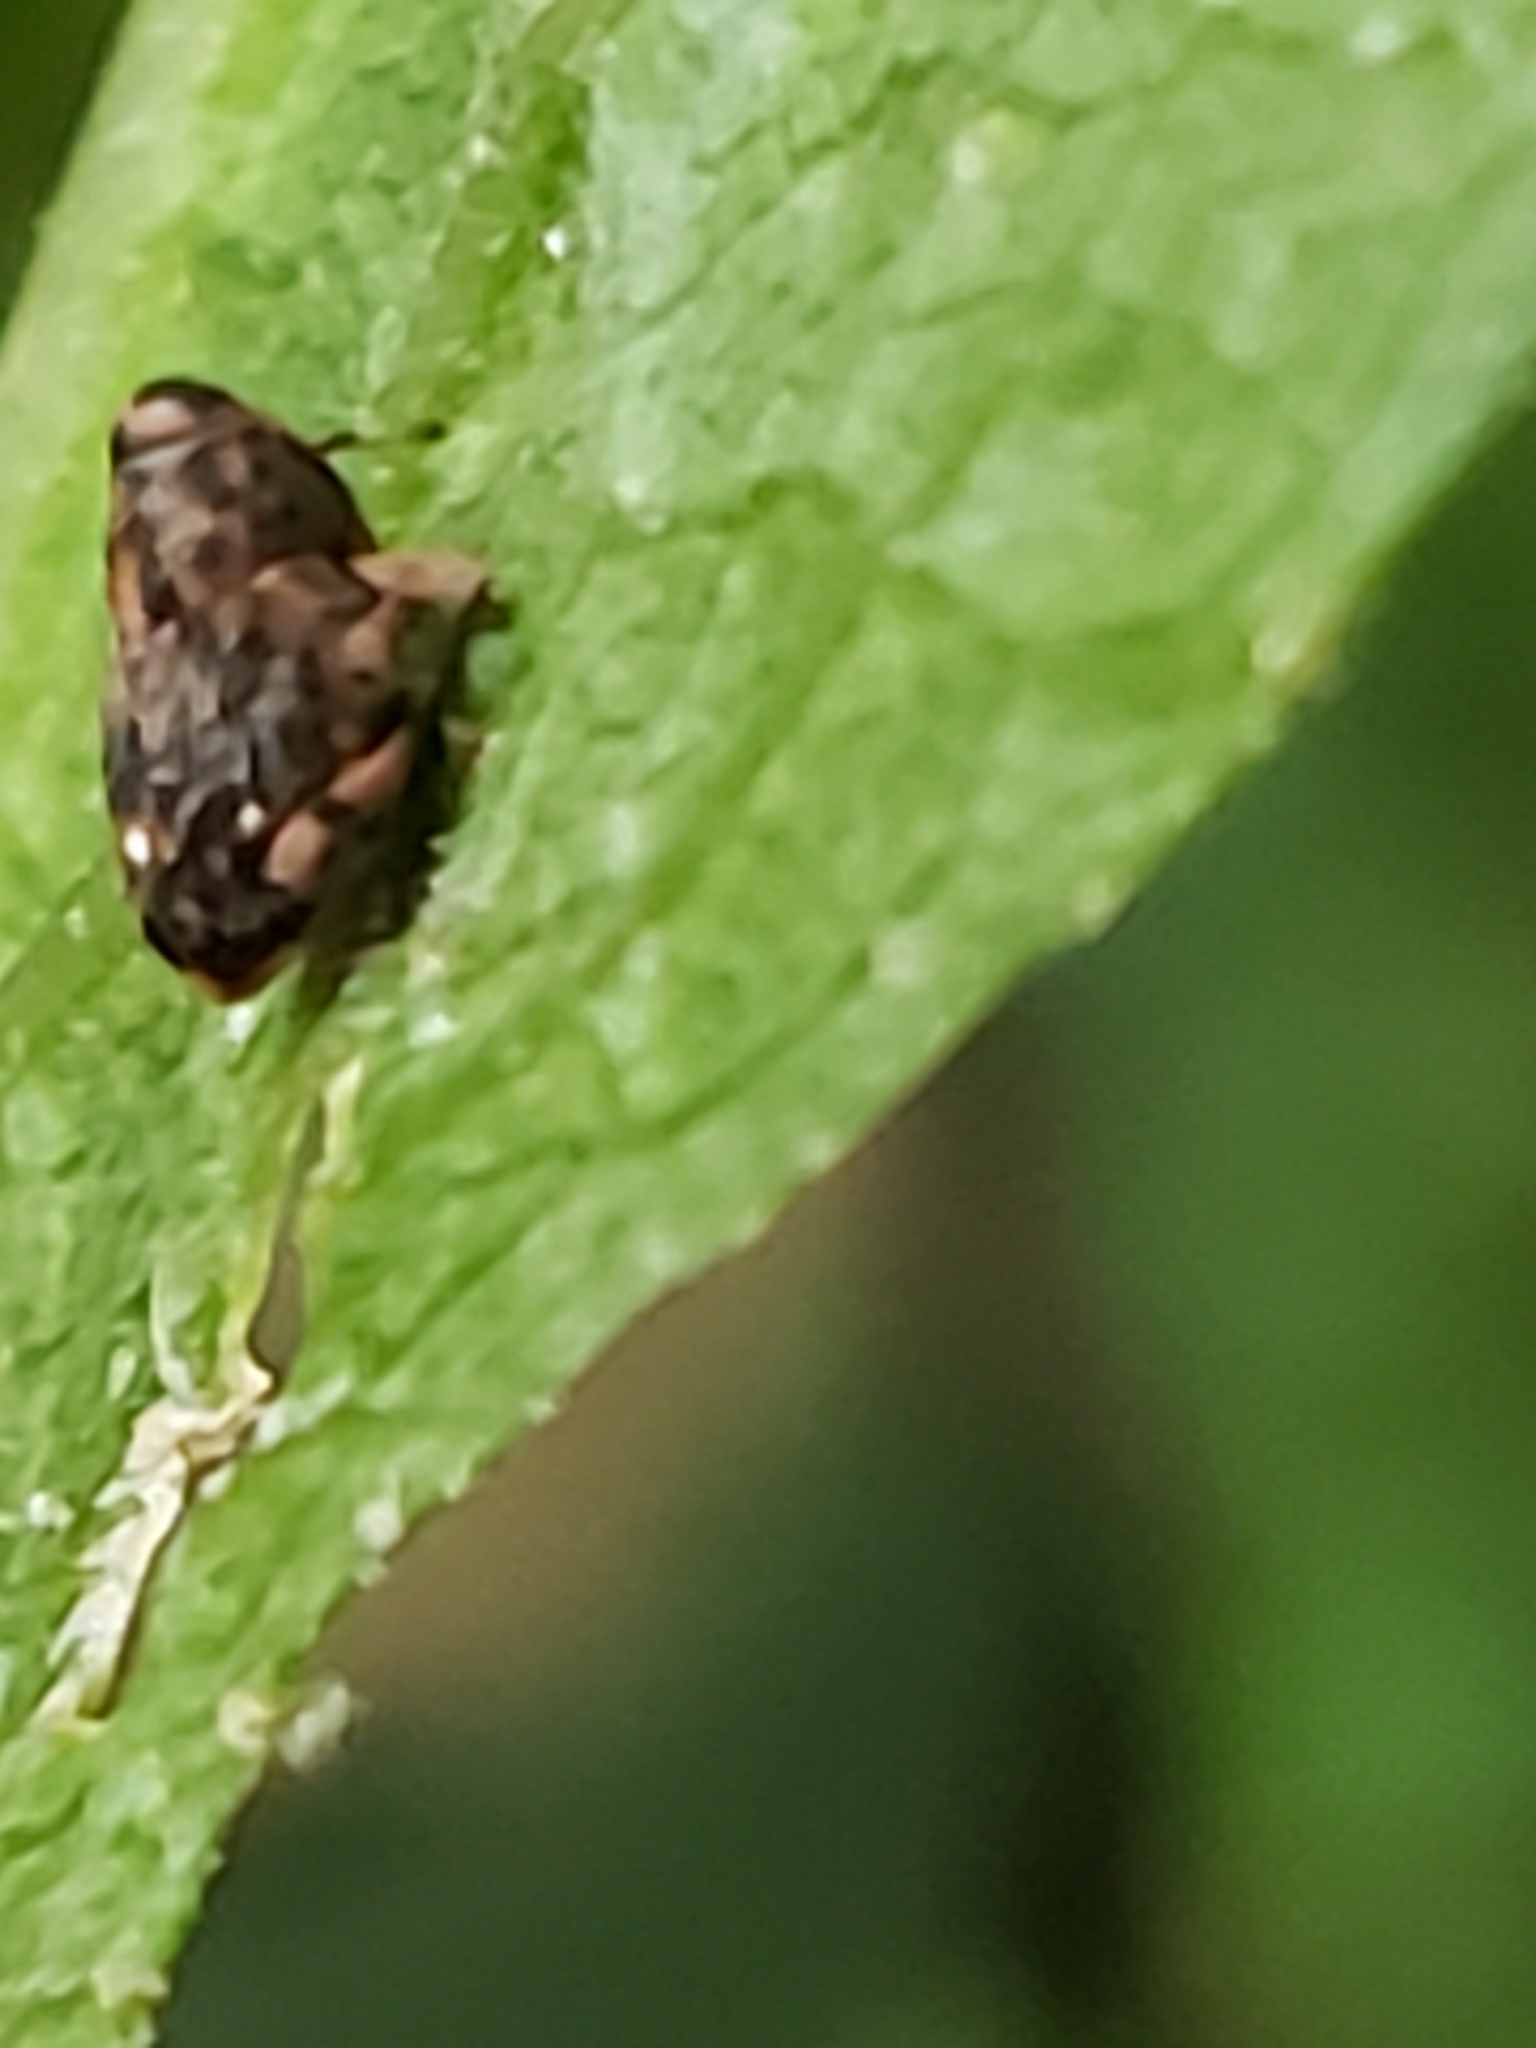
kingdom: Animalia
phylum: Arthropoda
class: Insecta
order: Coleoptera
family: Curculionidae
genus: Lechriops
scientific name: Lechriops oculatus
